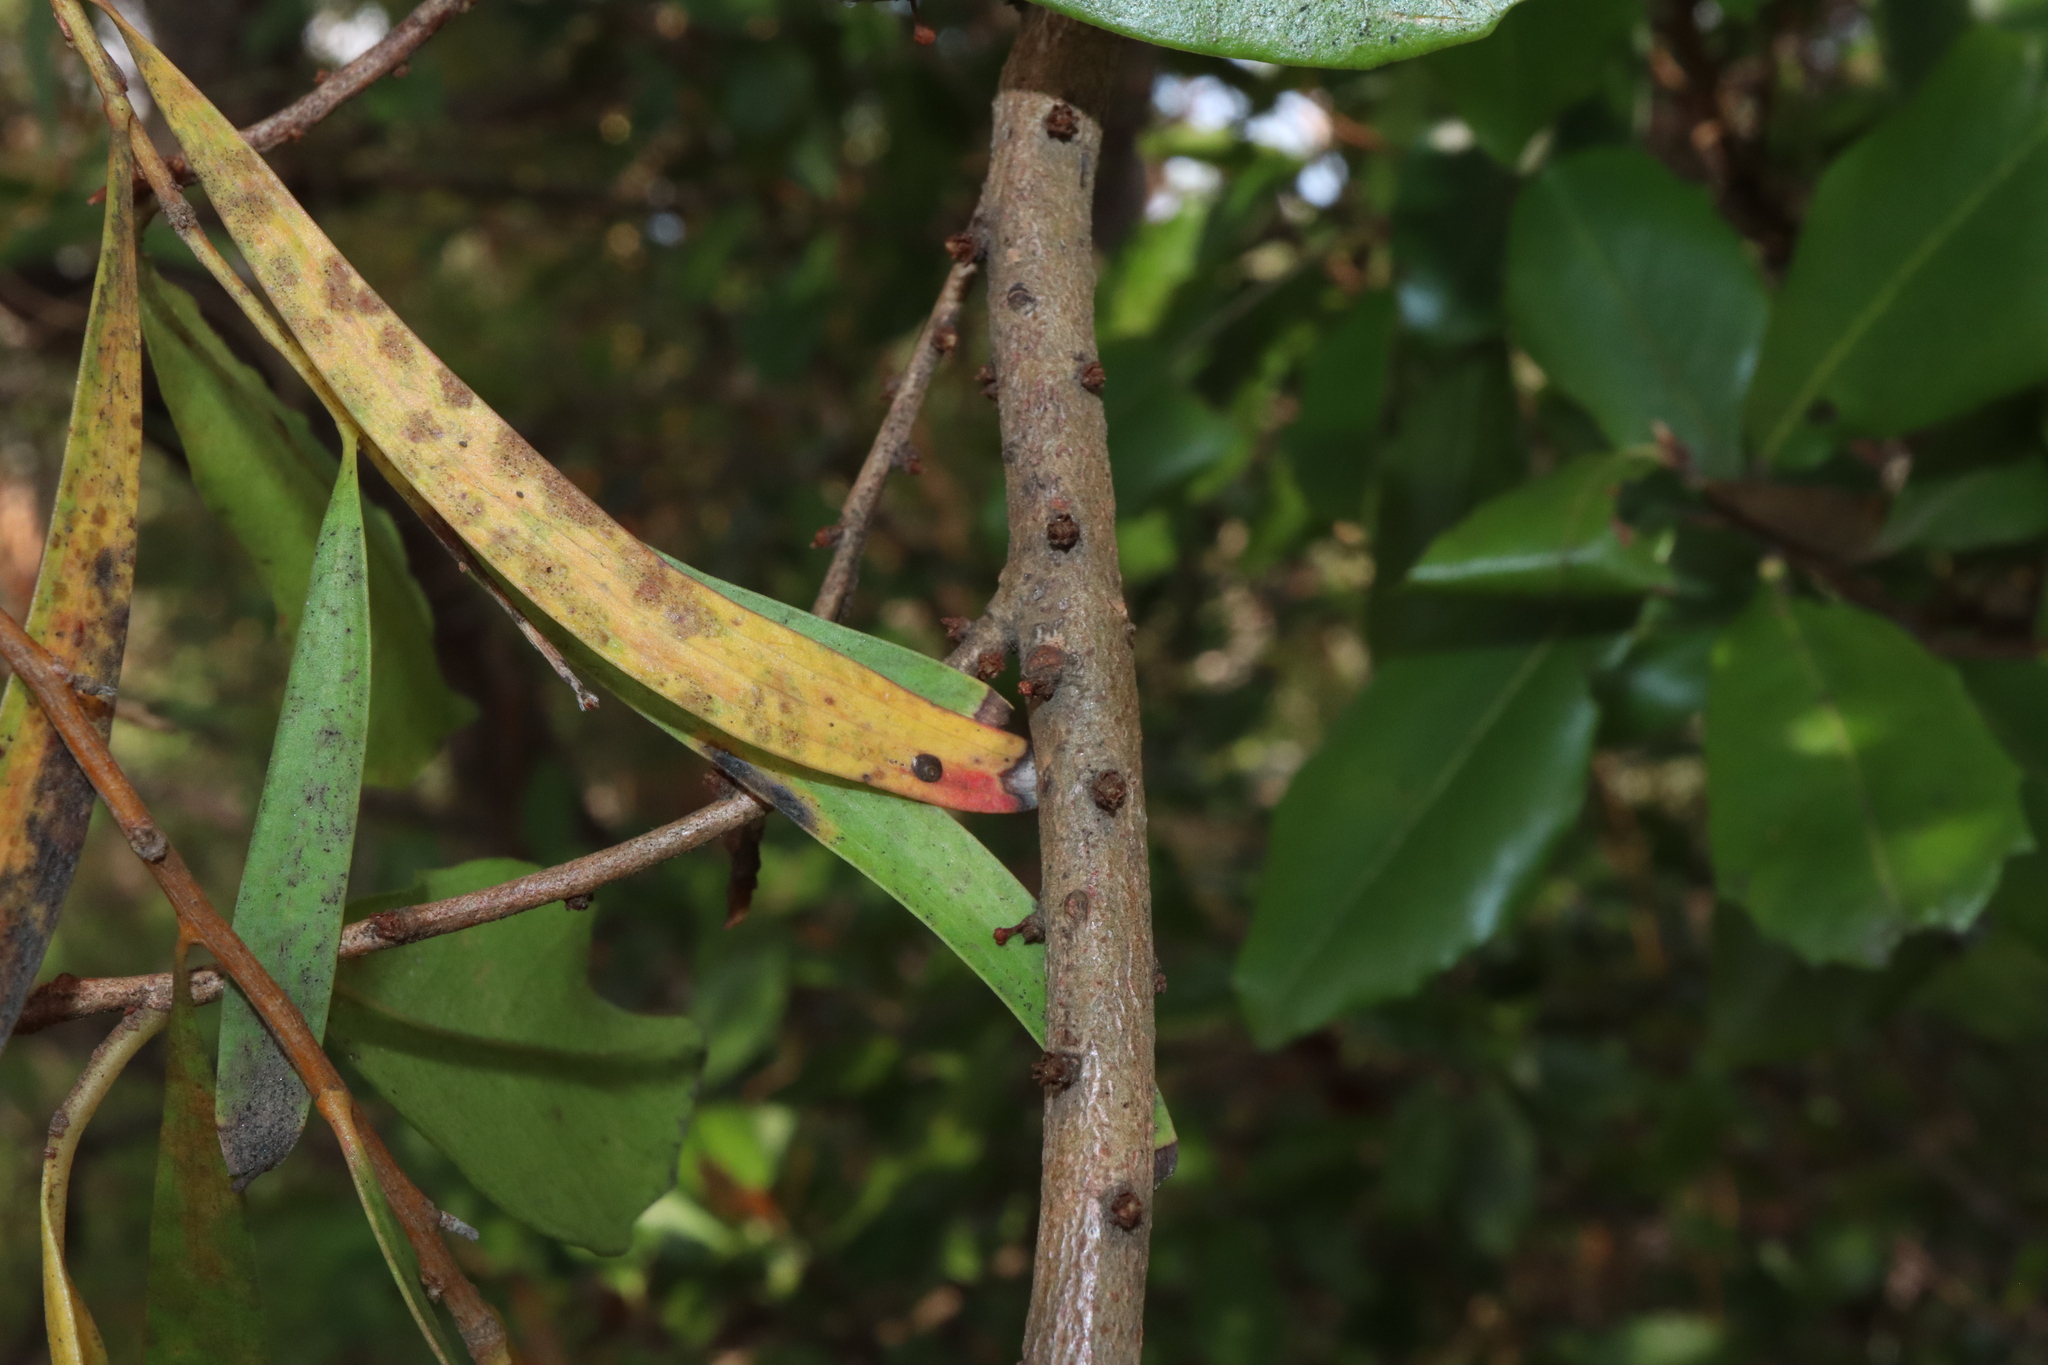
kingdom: Plantae
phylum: Tracheophyta
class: Magnoliopsida
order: Ericales
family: Primulaceae
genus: Myrsine
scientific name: Myrsine variabilis
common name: Brush muttonwood
